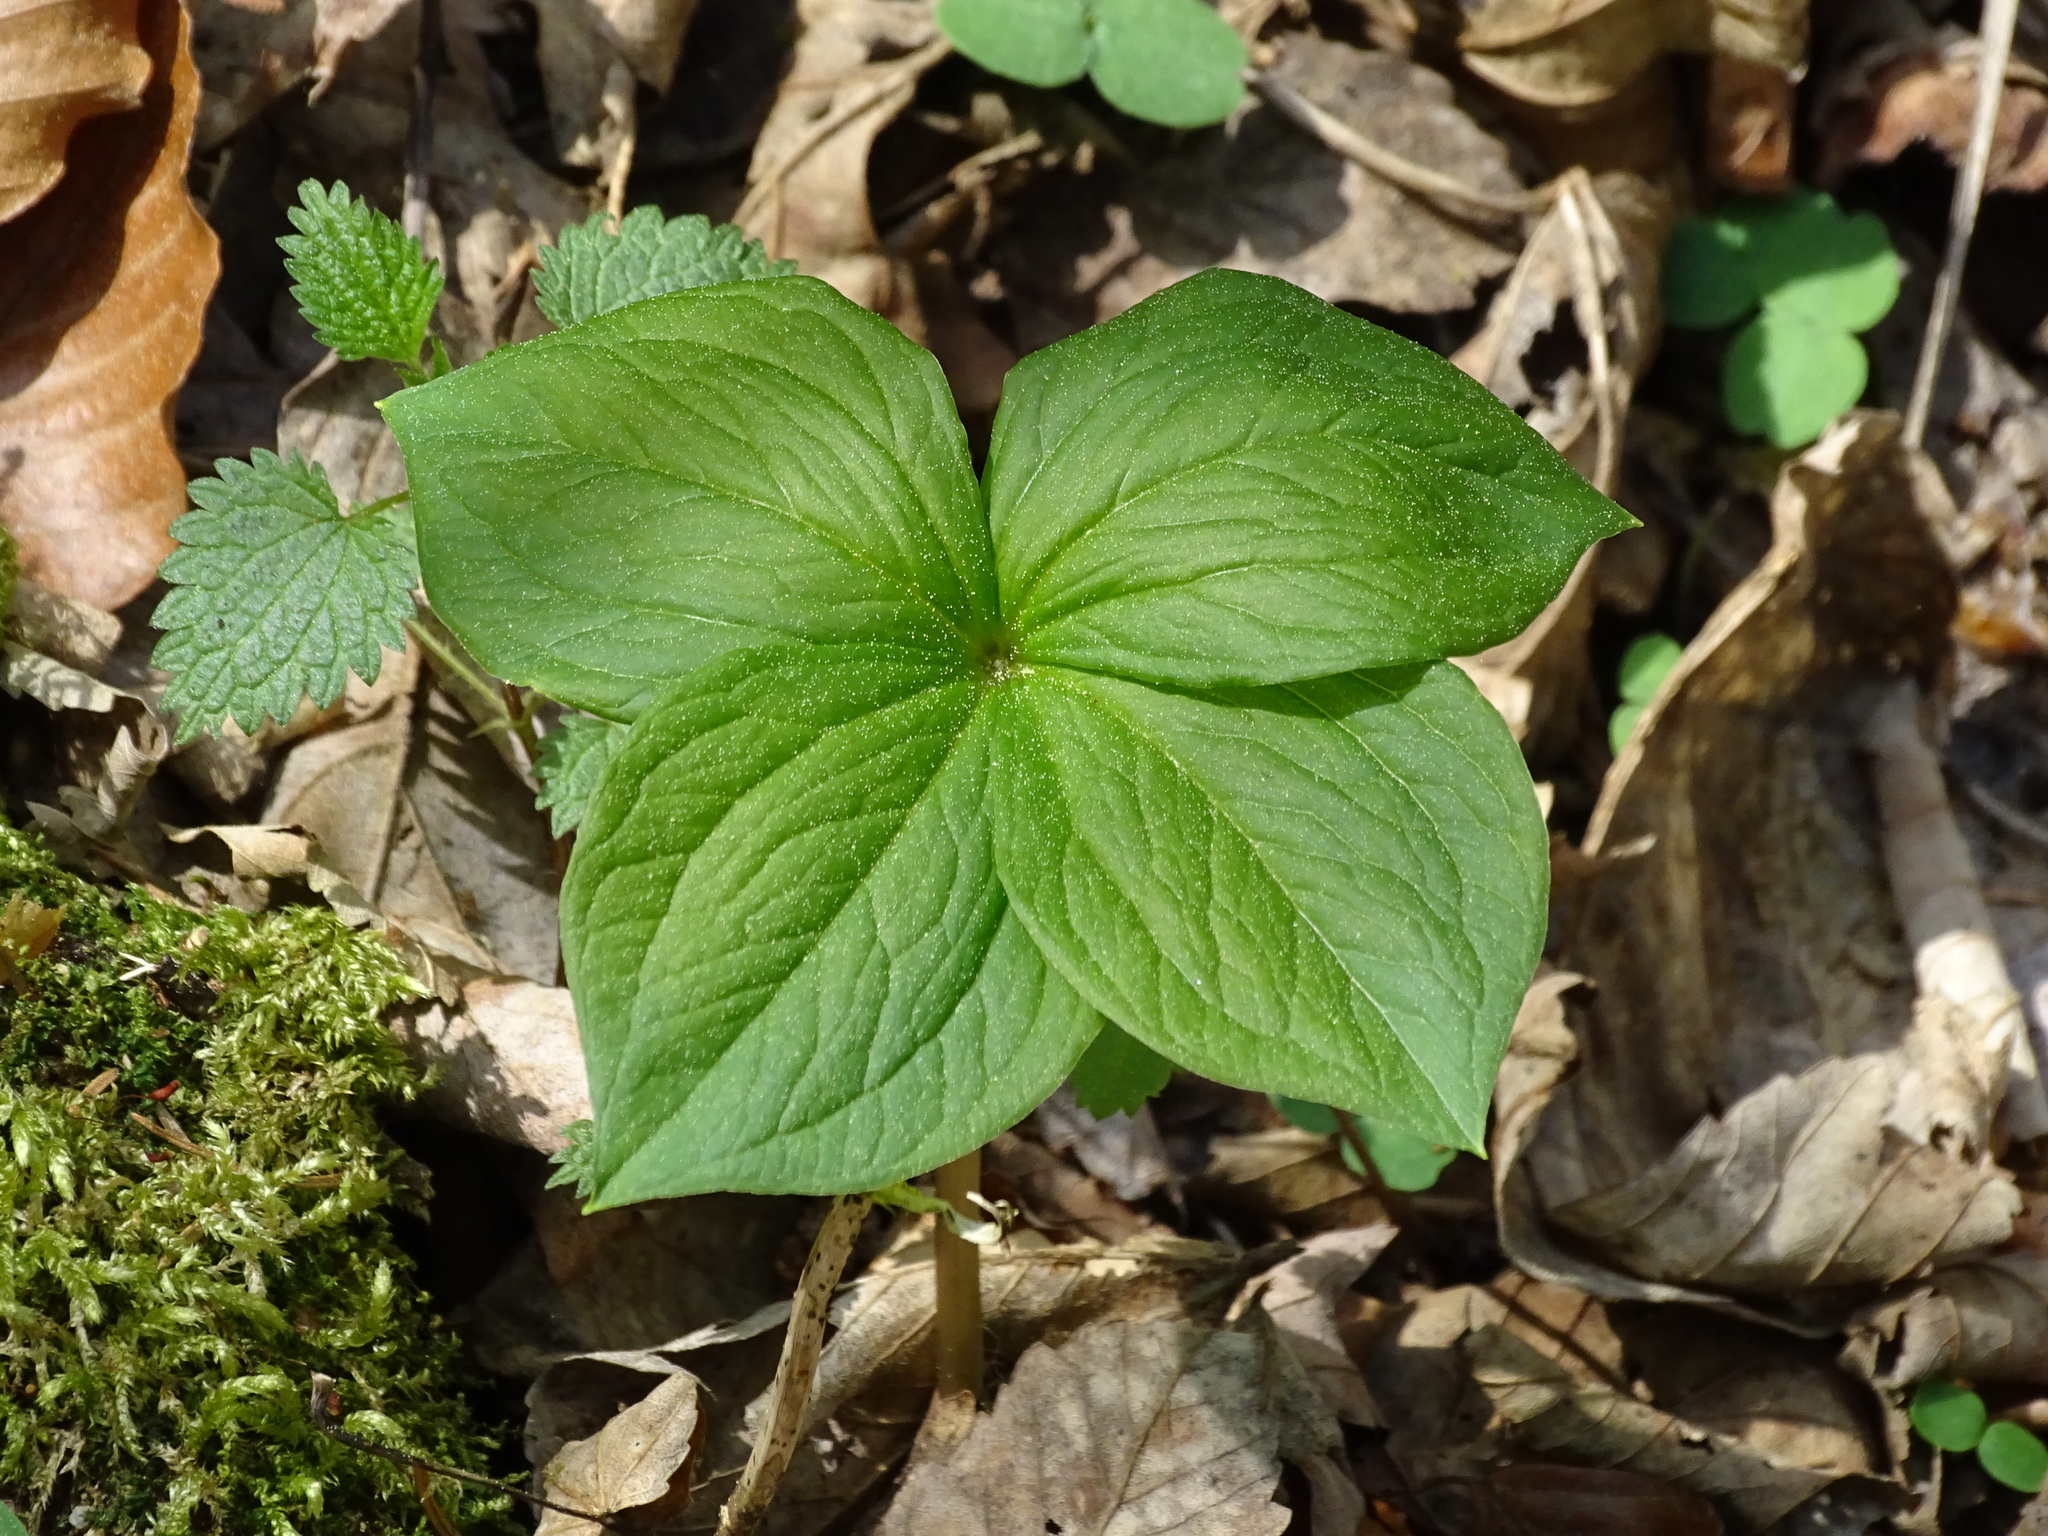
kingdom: Plantae
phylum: Tracheophyta
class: Liliopsida
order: Liliales
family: Melanthiaceae
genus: Paris
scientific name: Paris quadrifolia
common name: Herb-paris
